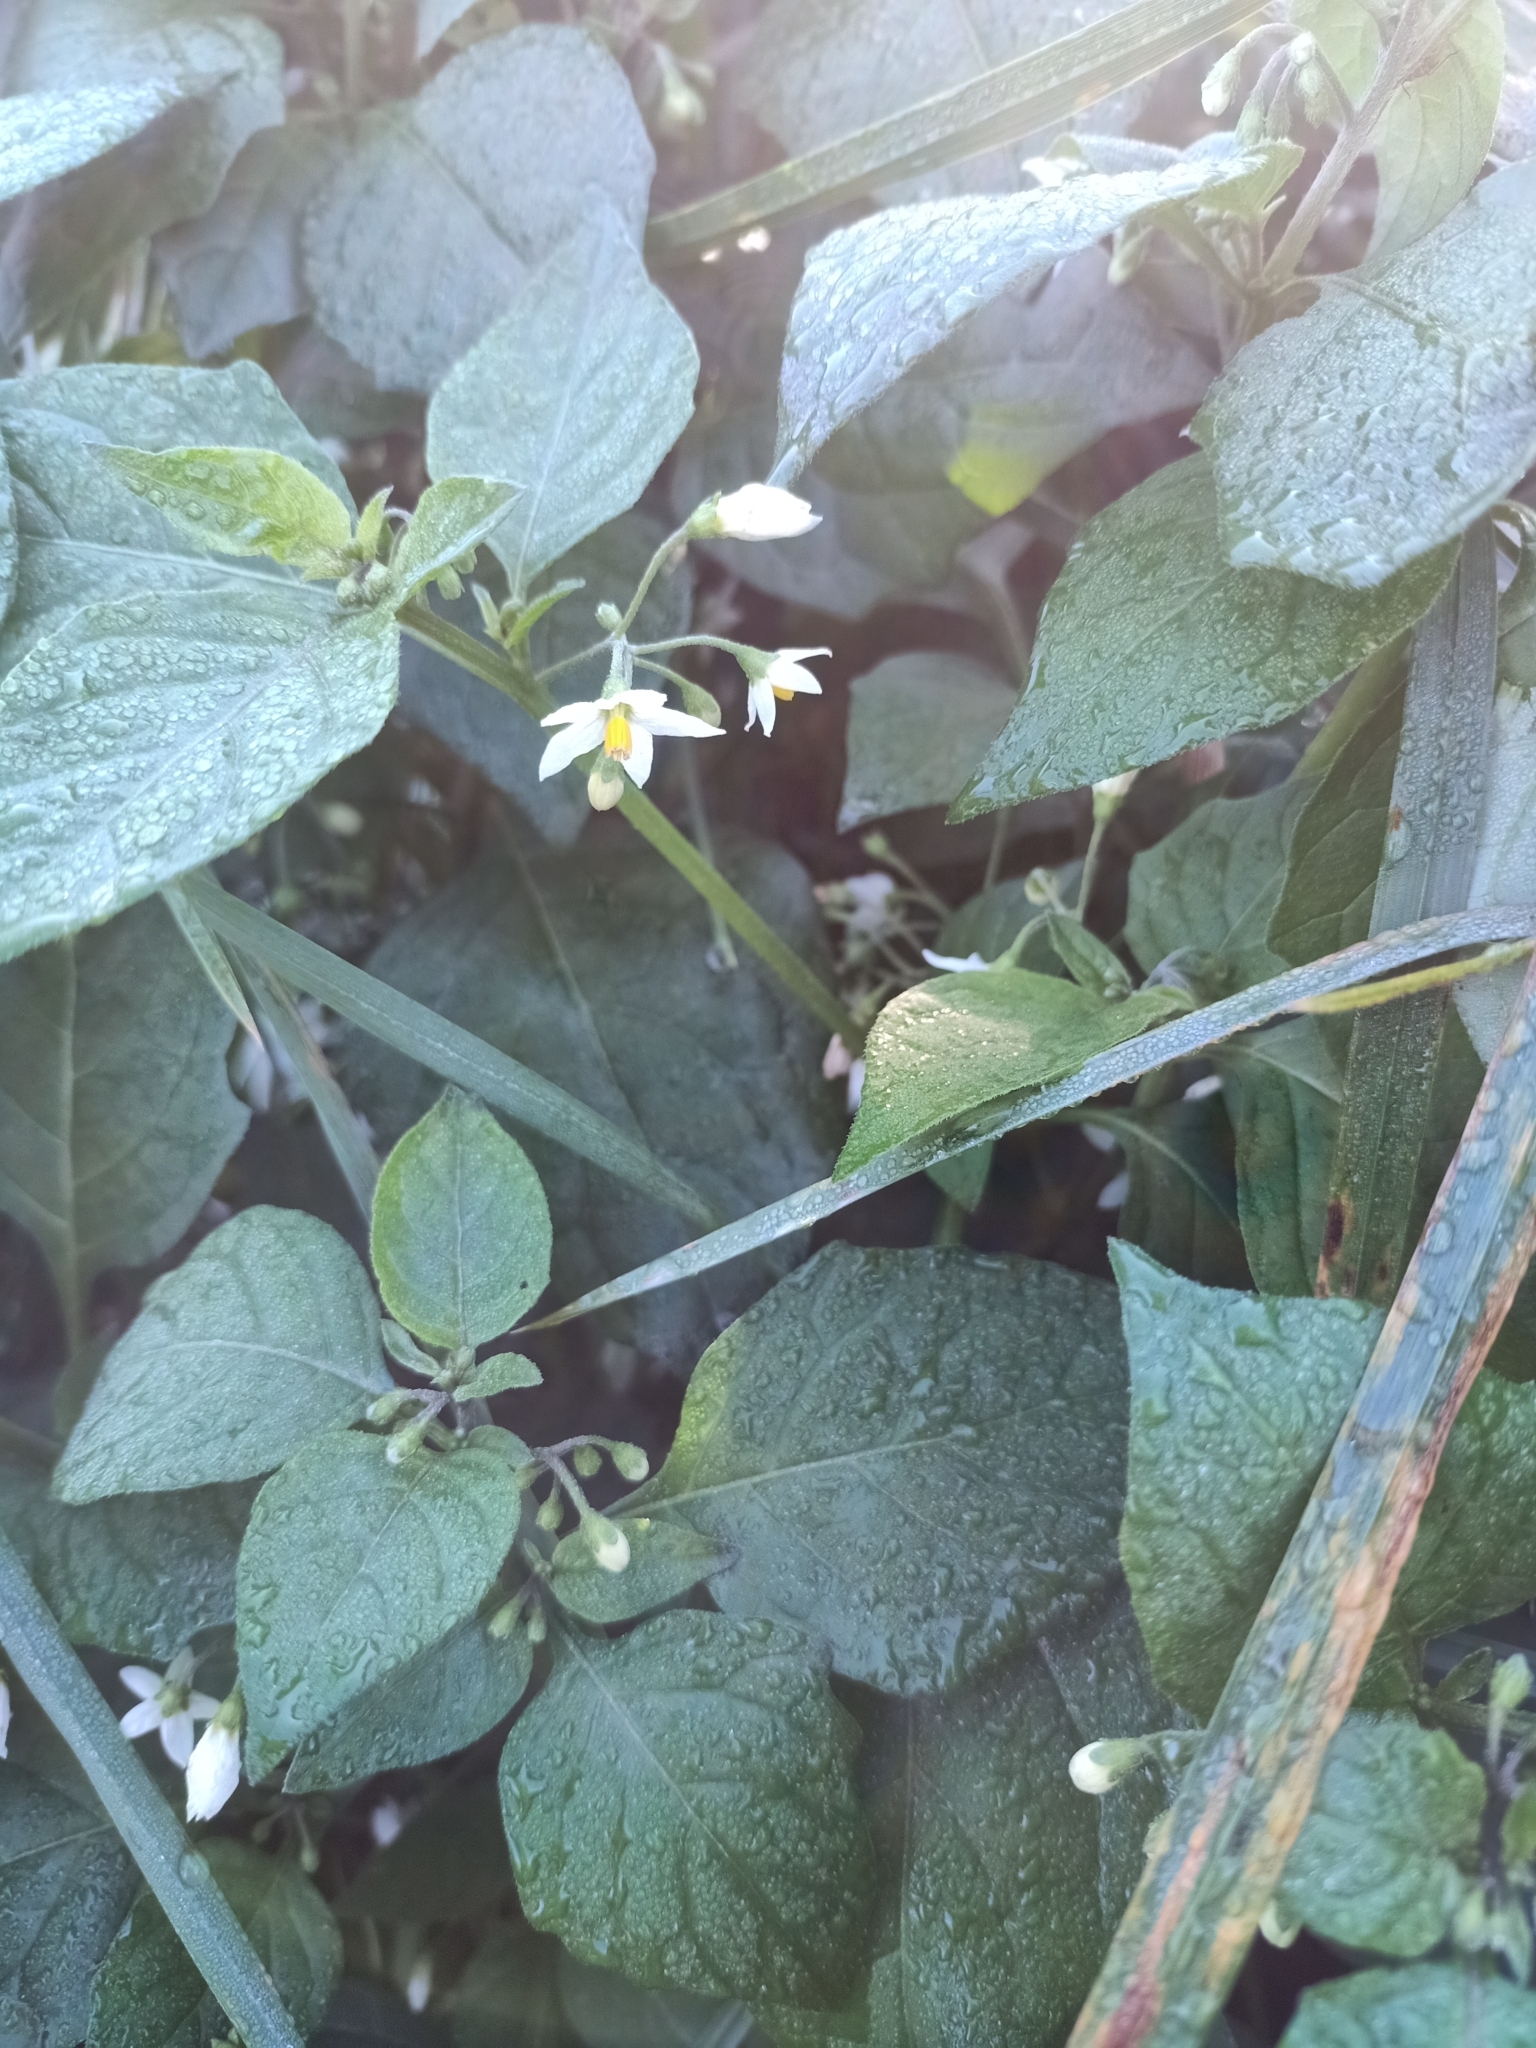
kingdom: Plantae
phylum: Tracheophyta
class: Magnoliopsida
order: Solanales
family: Solanaceae
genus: Solanum
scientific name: Solanum nigrum
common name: Black nightshade
